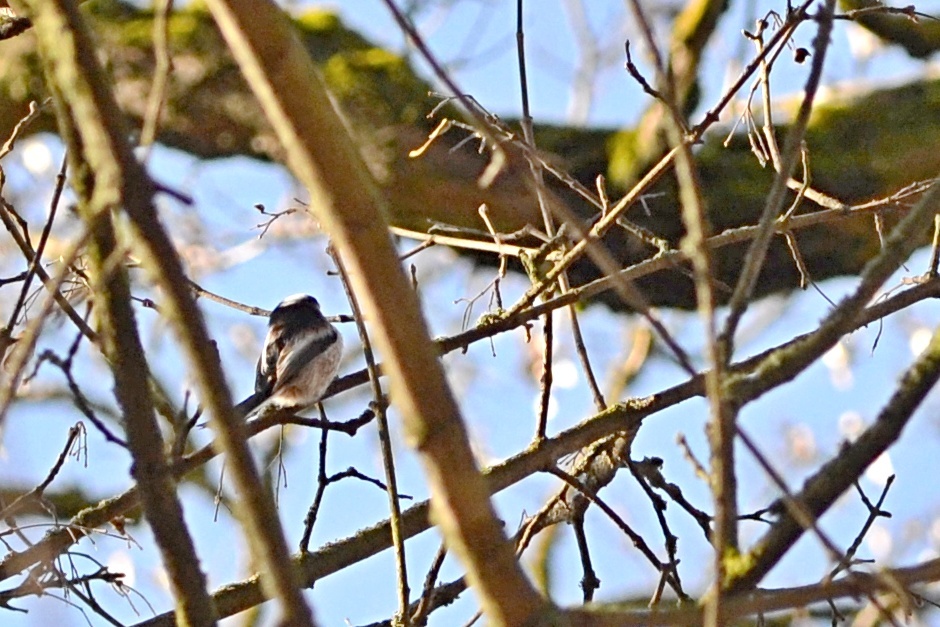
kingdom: Animalia
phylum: Chordata
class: Aves
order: Passeriformes
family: Aegithalidae
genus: Aegithalos
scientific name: Aegithalos caudatus
